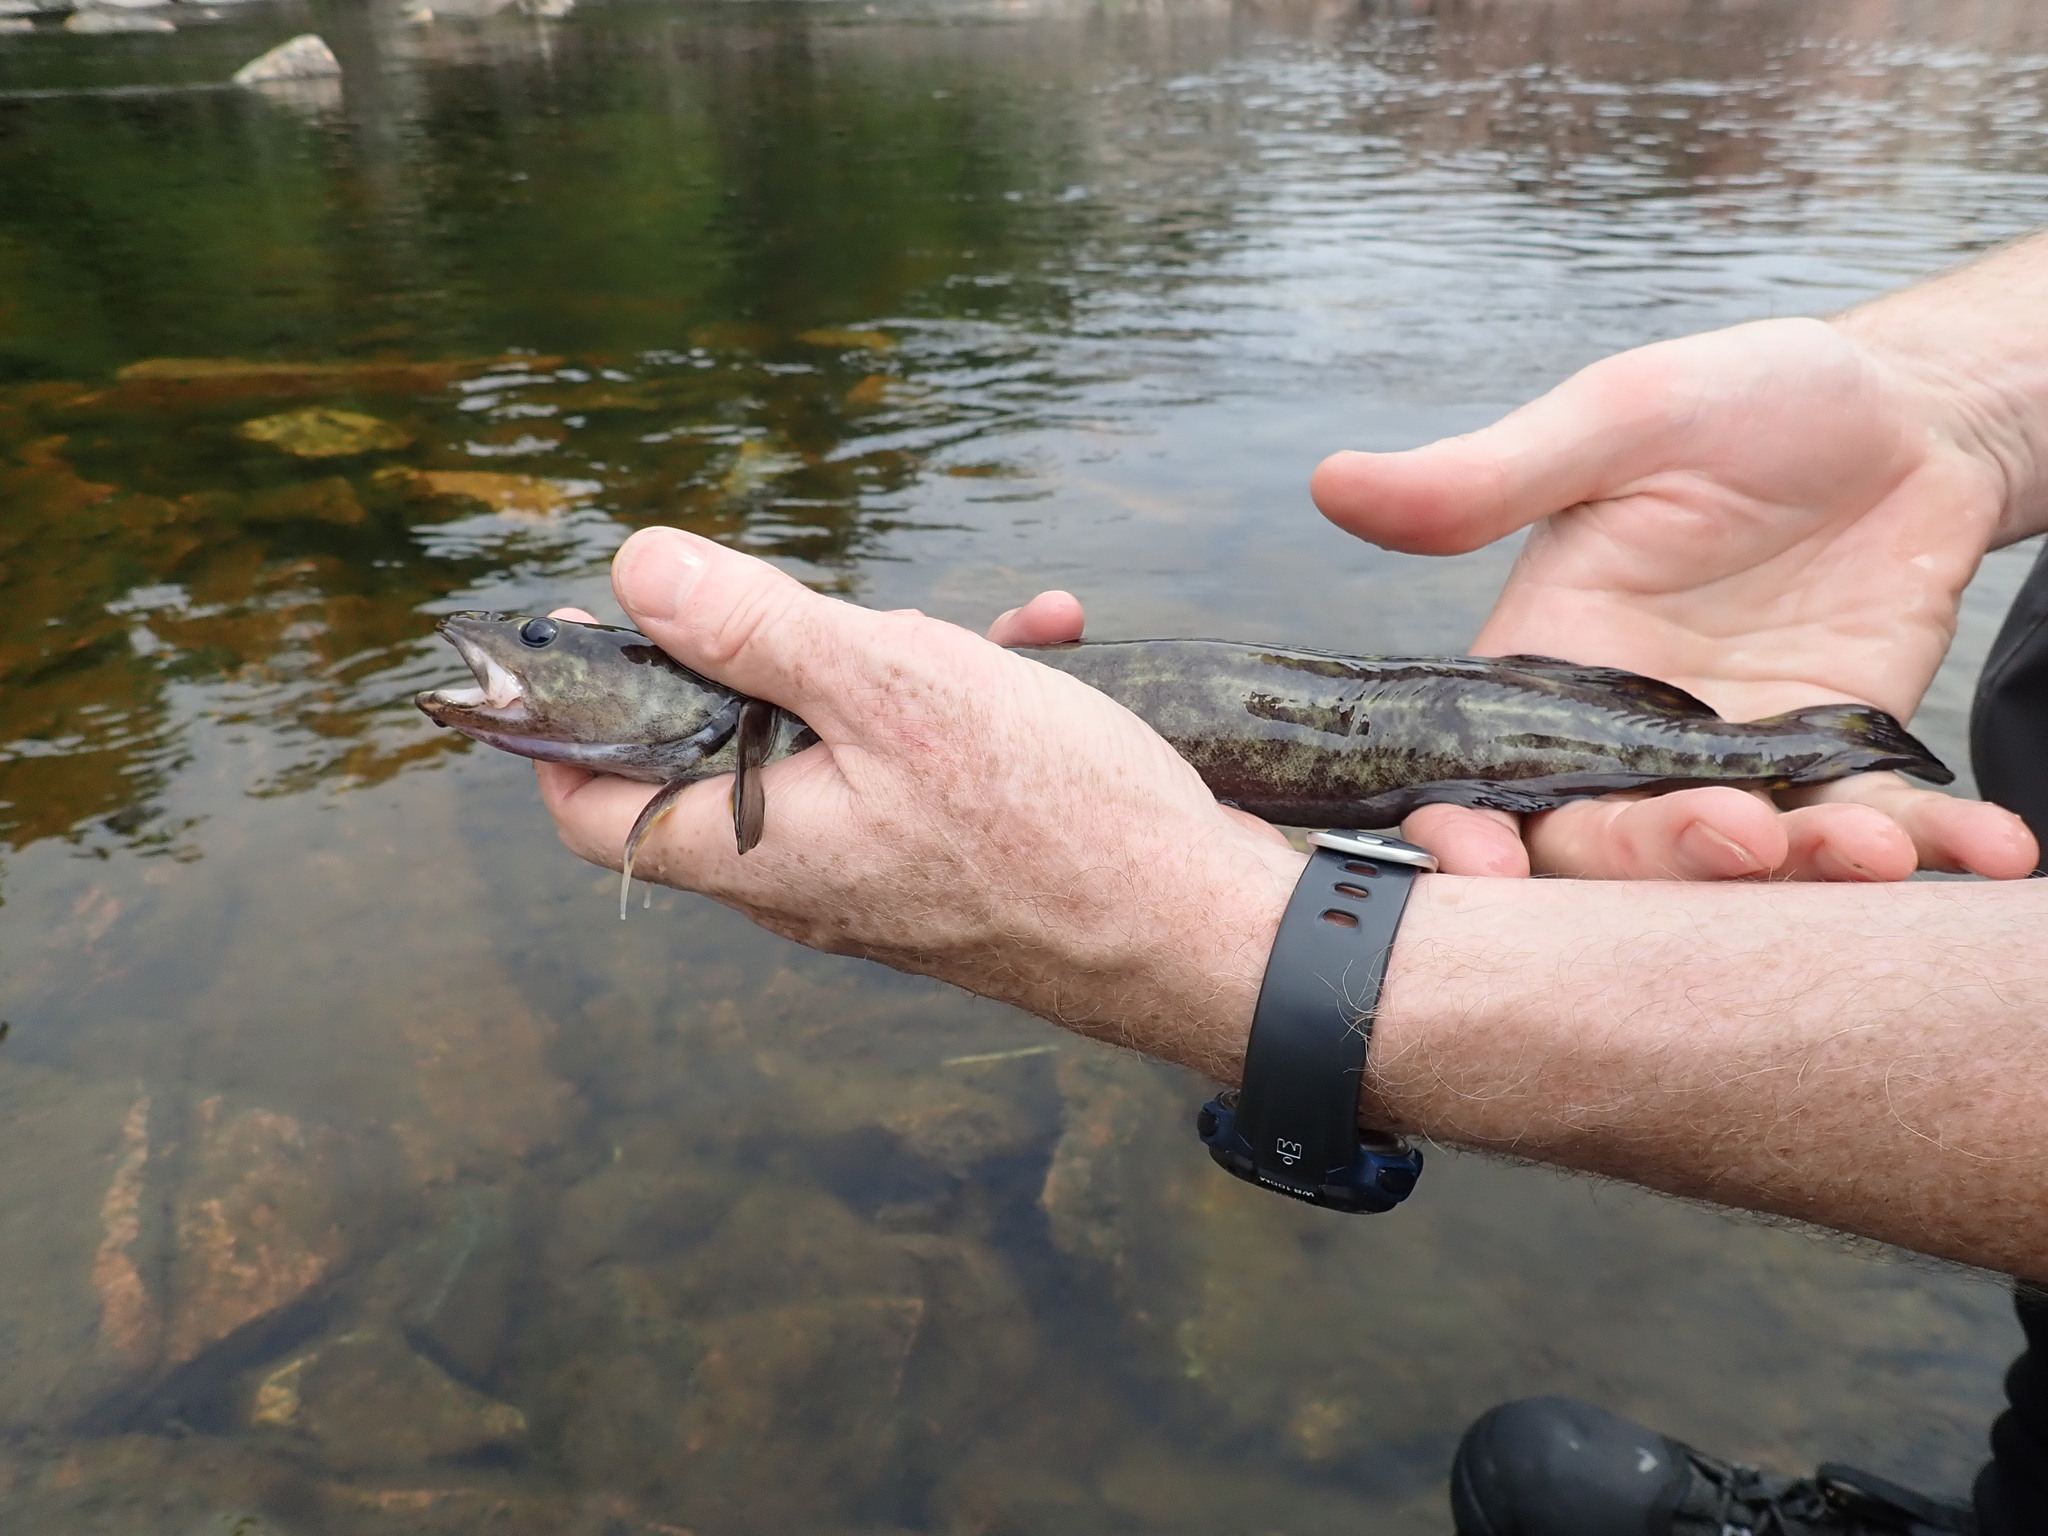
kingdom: Animalia
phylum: Chordata
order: Gadiformes
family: Lotidae
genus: Lota
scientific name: Lota lota
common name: Burbot
